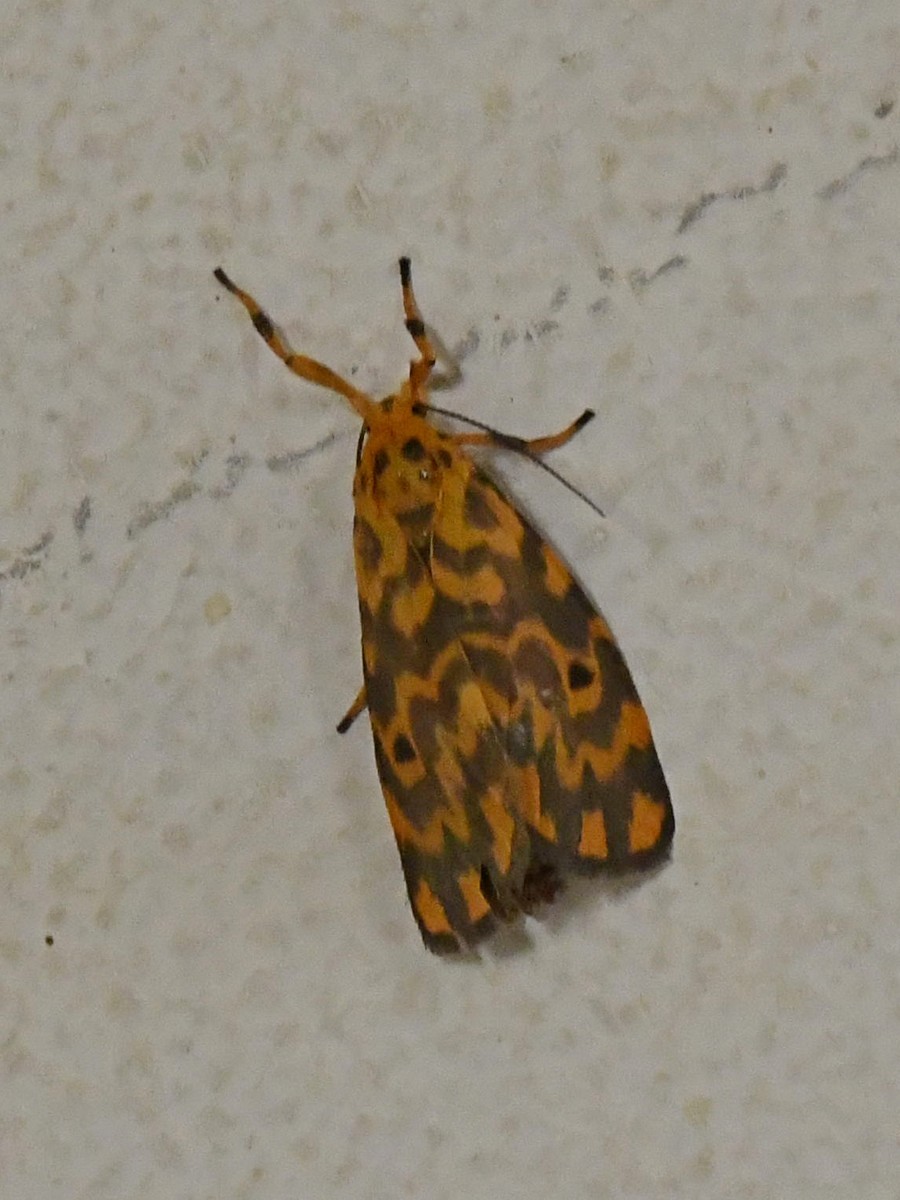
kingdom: Animalia
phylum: Arthropoda
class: Insecta
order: Lepidoptera
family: Erebidae
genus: Nepita
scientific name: Nepita conferta
